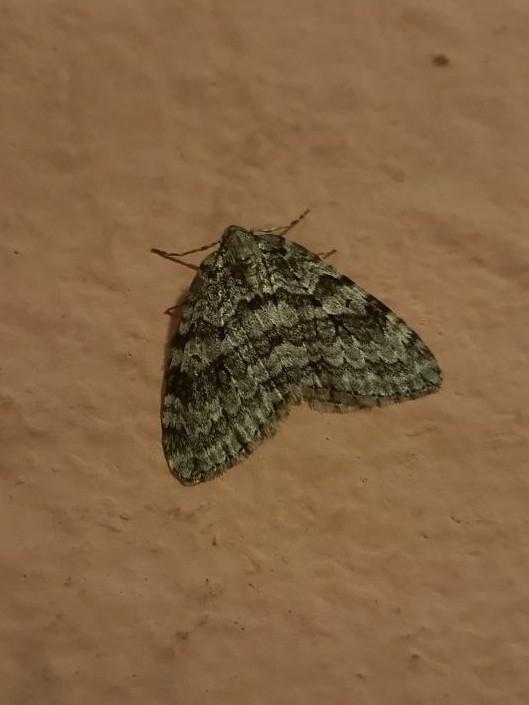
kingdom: Animalia
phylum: Arthropoda
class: Insecta
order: Lepidoptera
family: Geometridae
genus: Epirrita
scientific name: Epirrita autumnata
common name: Autumnal moth
